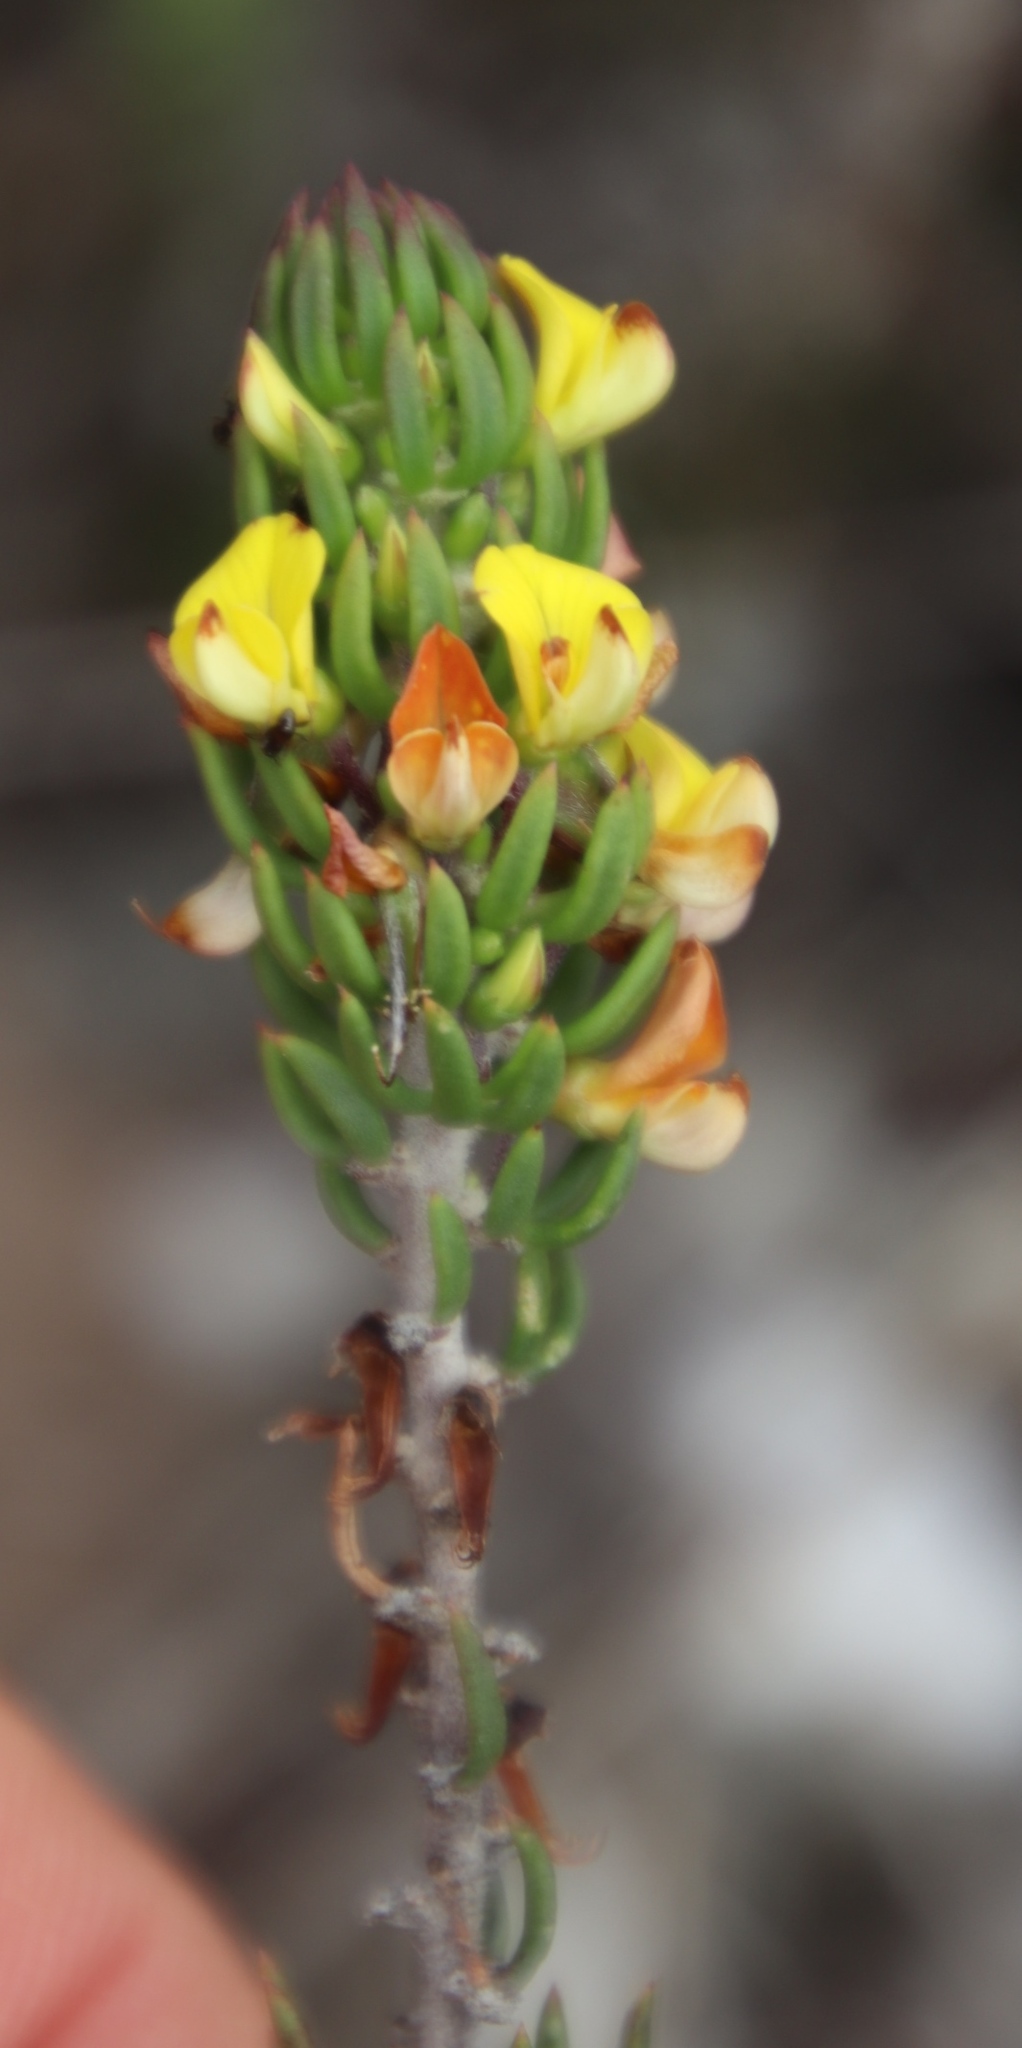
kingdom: Plantae
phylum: Tracheophyta
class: Magnoliopsida
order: Fabales
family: Fabaceae
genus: Aspalathus
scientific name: Aspalathus mundiana
